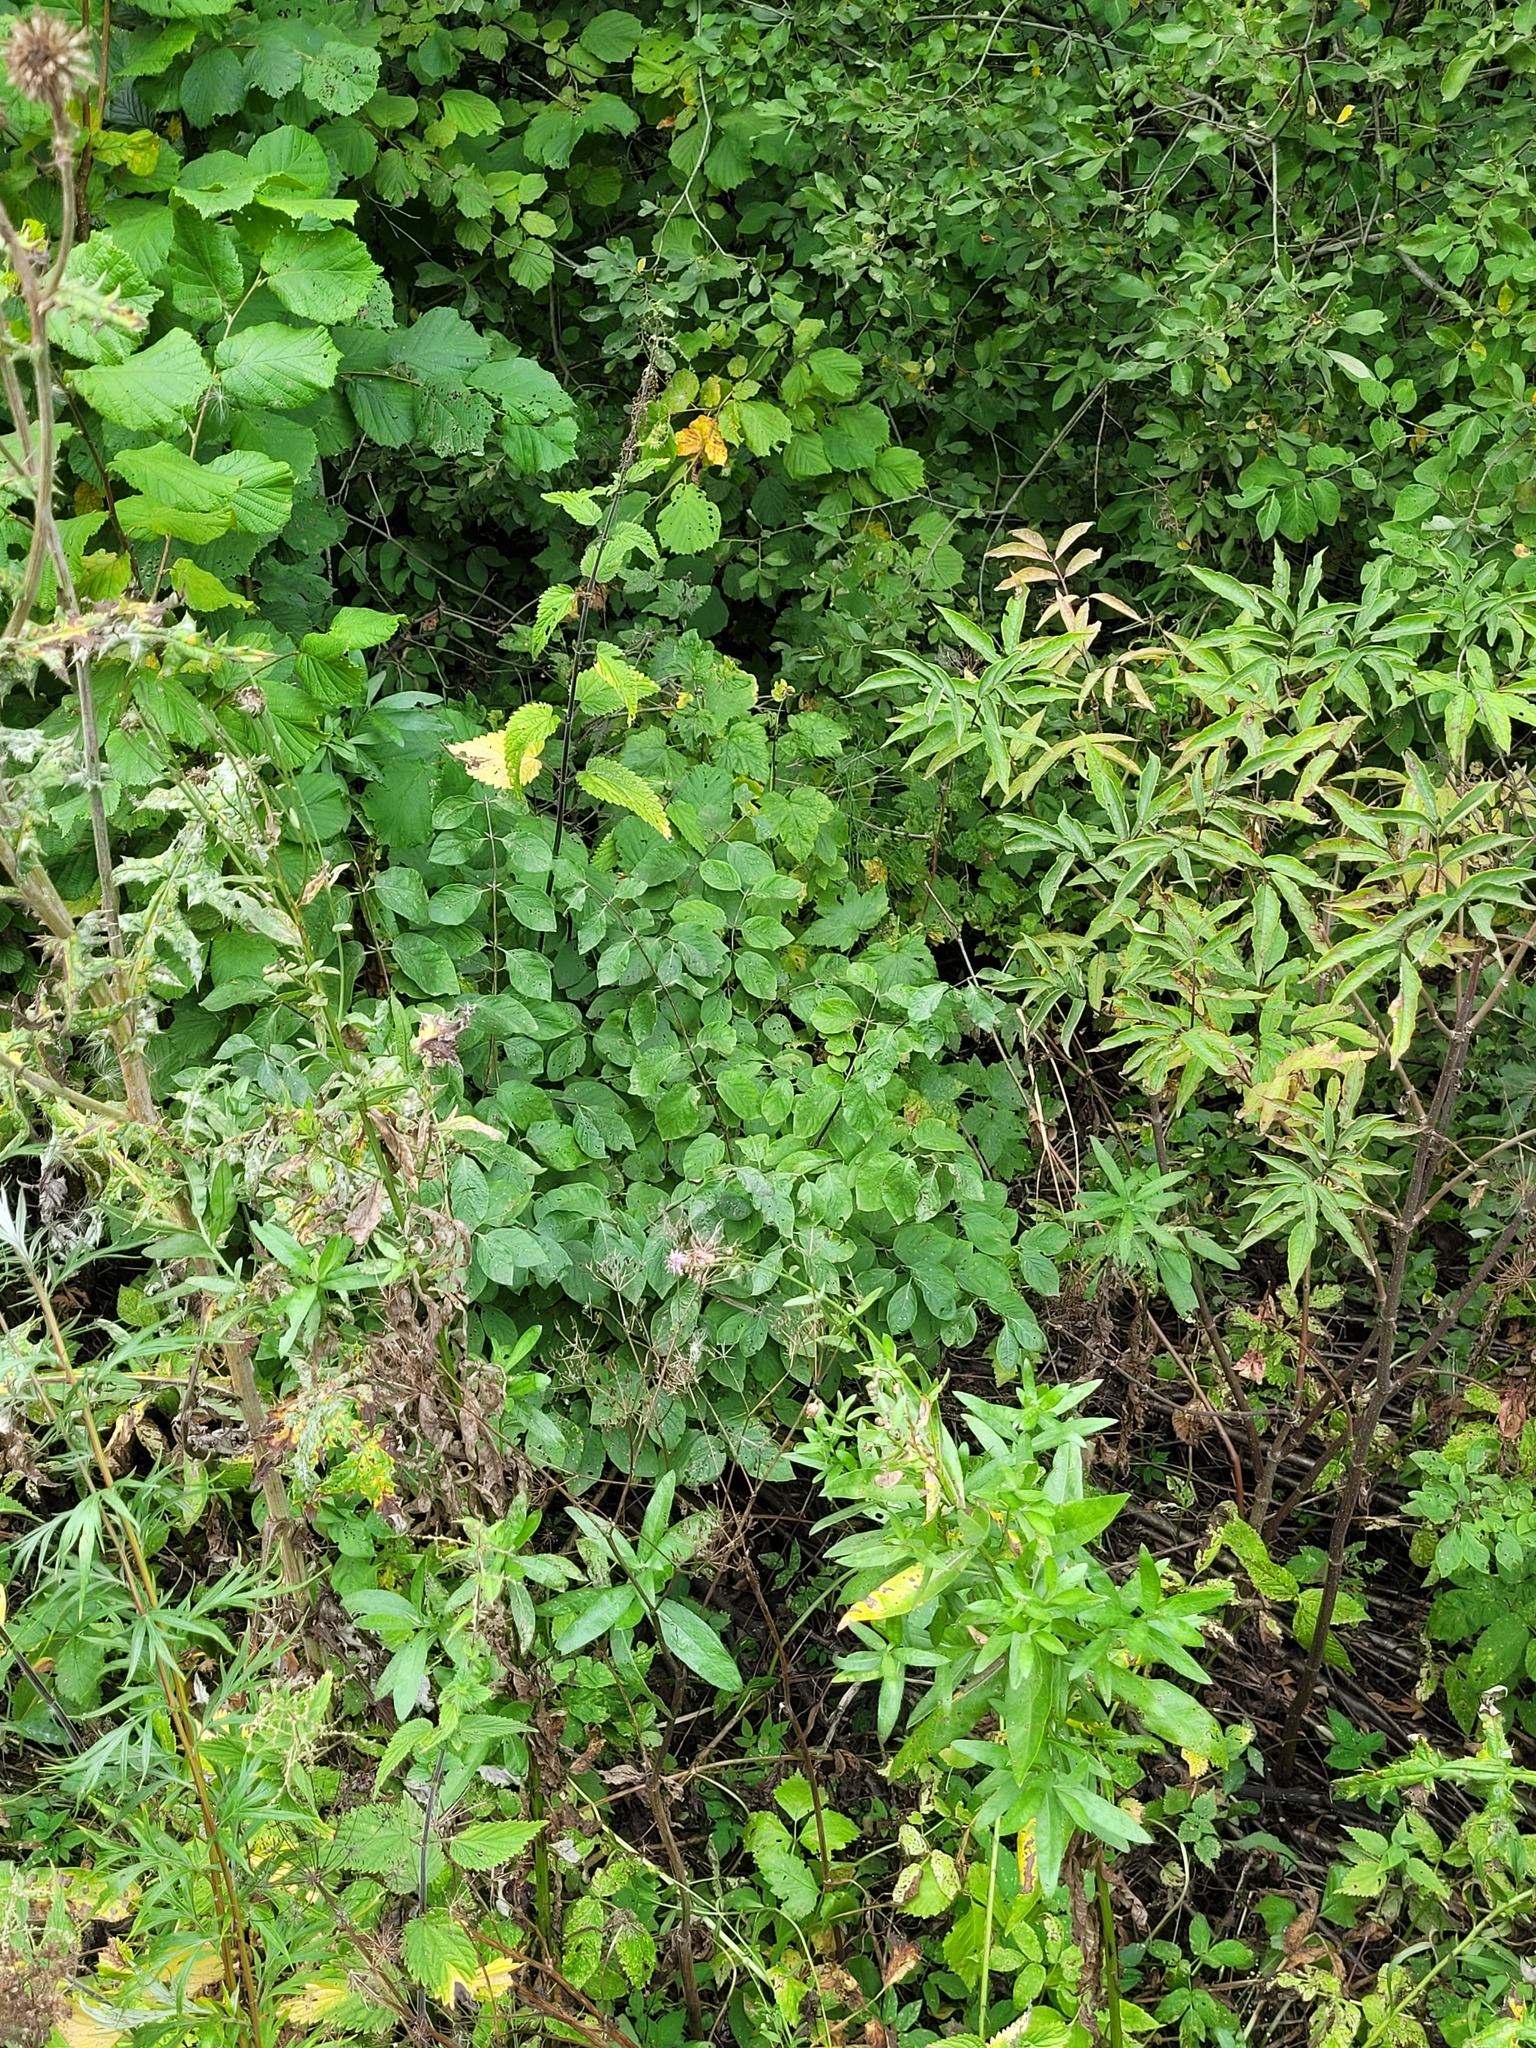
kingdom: Plantae
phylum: Tracheophyta
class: Magnoliopsida
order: Dipsacales
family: Caprifoliaceae
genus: Lonicera
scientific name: Lonicera xylosteum
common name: Fly honeysuckle
